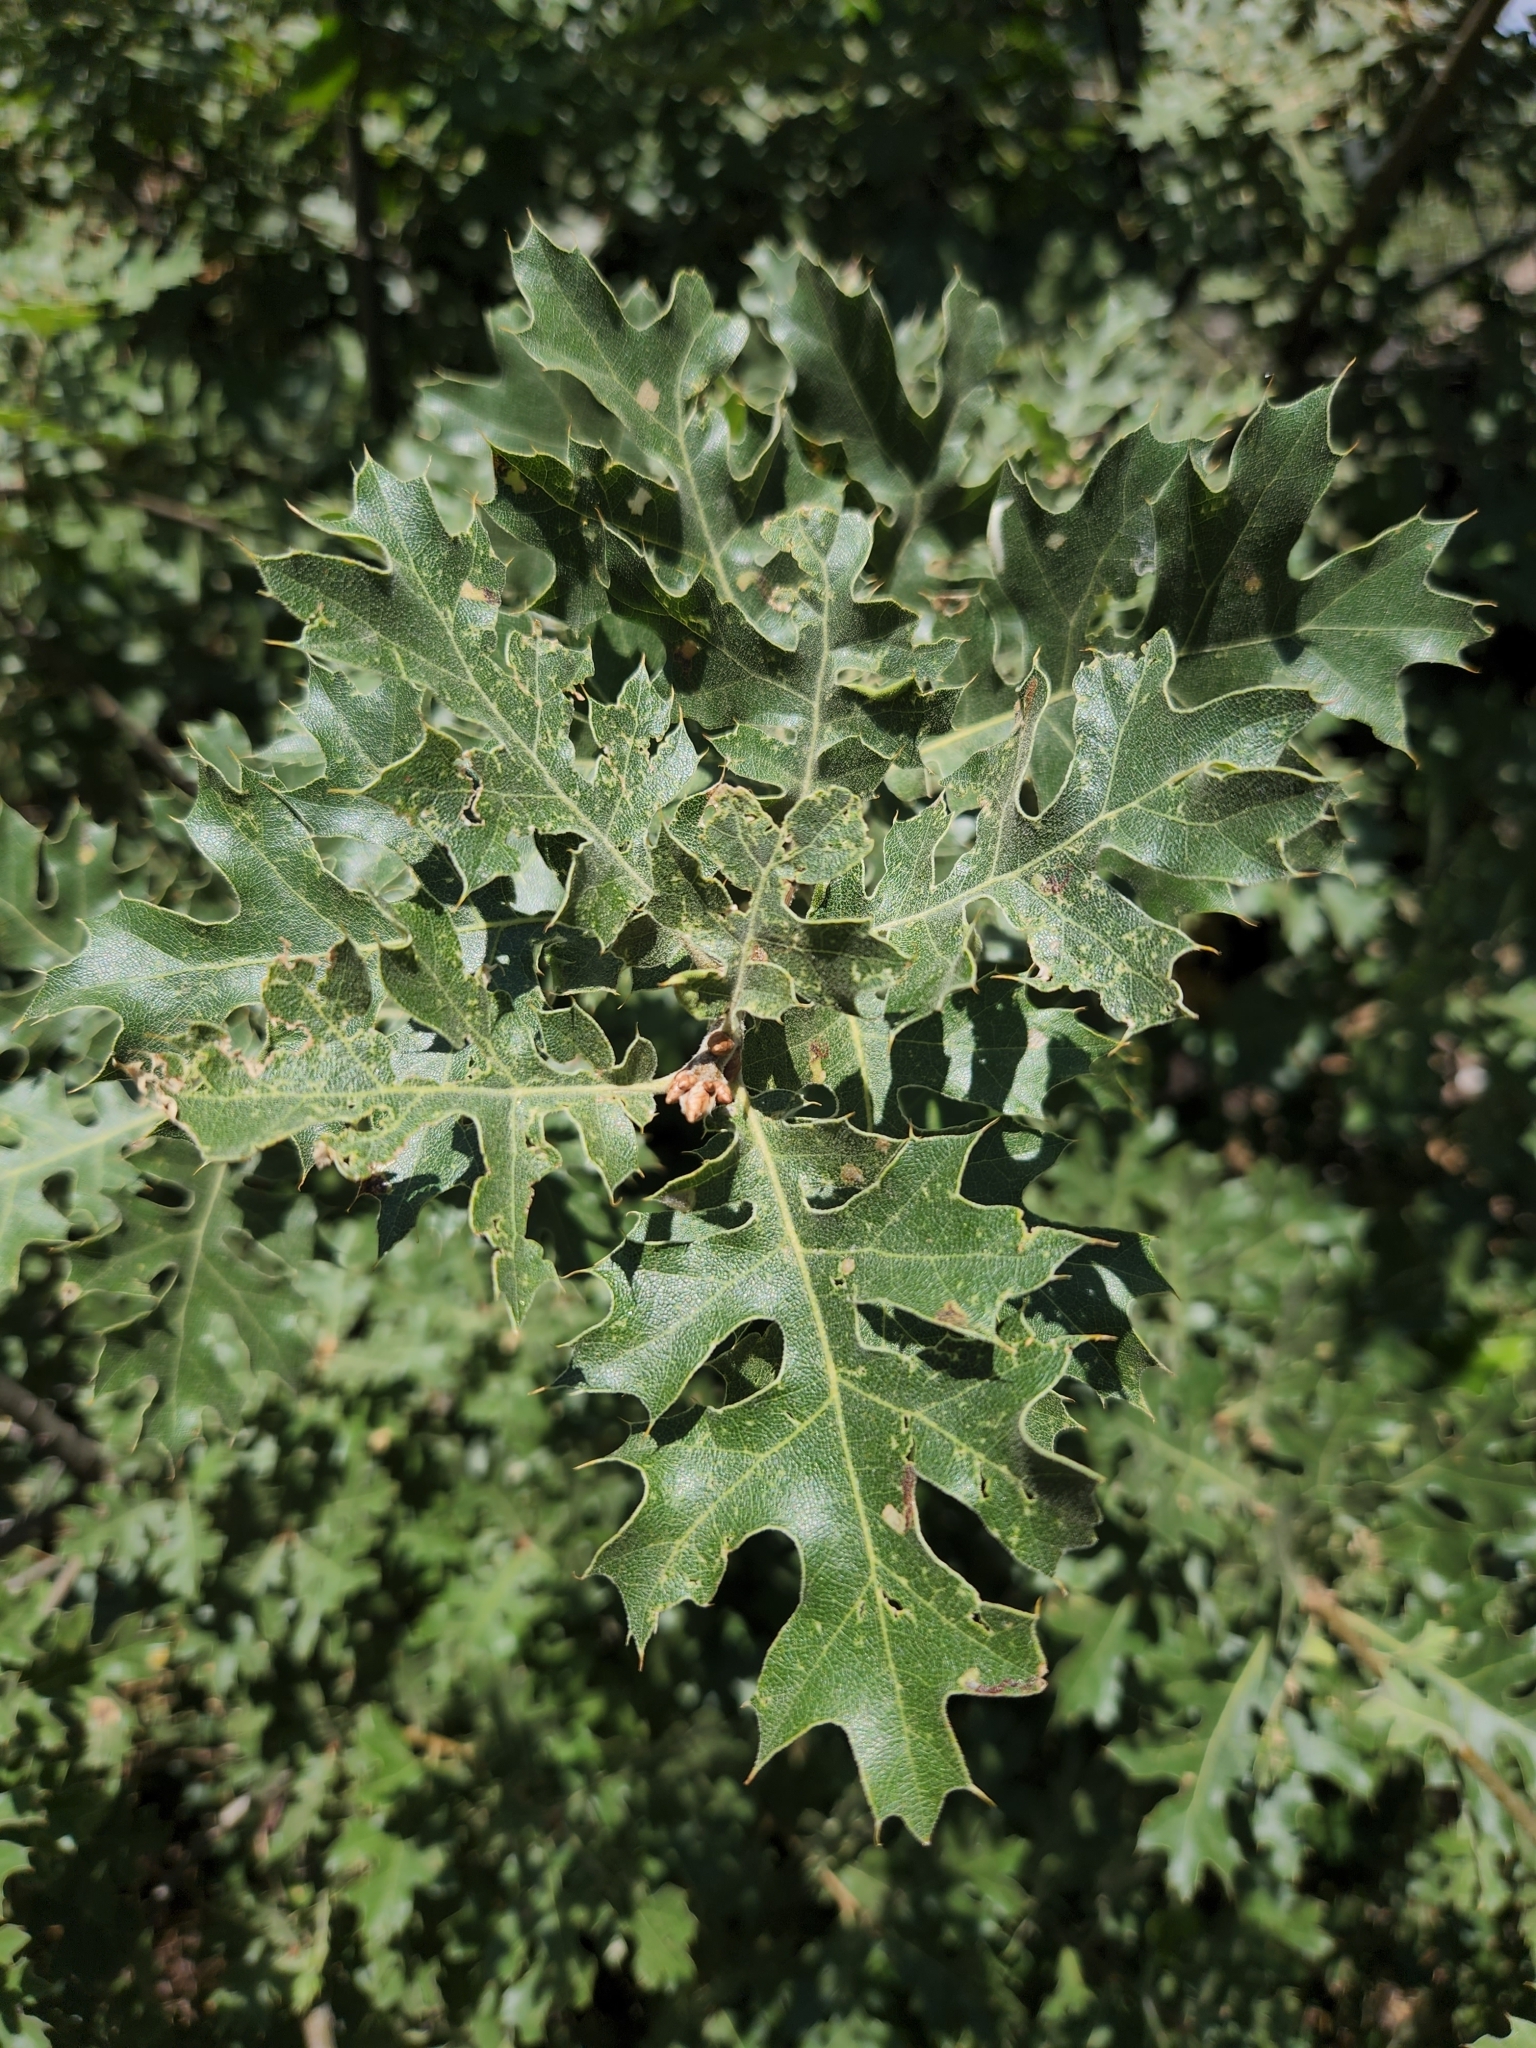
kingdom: Plantae
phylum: Tracheophyta
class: Magnoliopsida
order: Fagales
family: Fagaceae
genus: Quercus
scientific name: Quercus kelloggii
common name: California black oak
